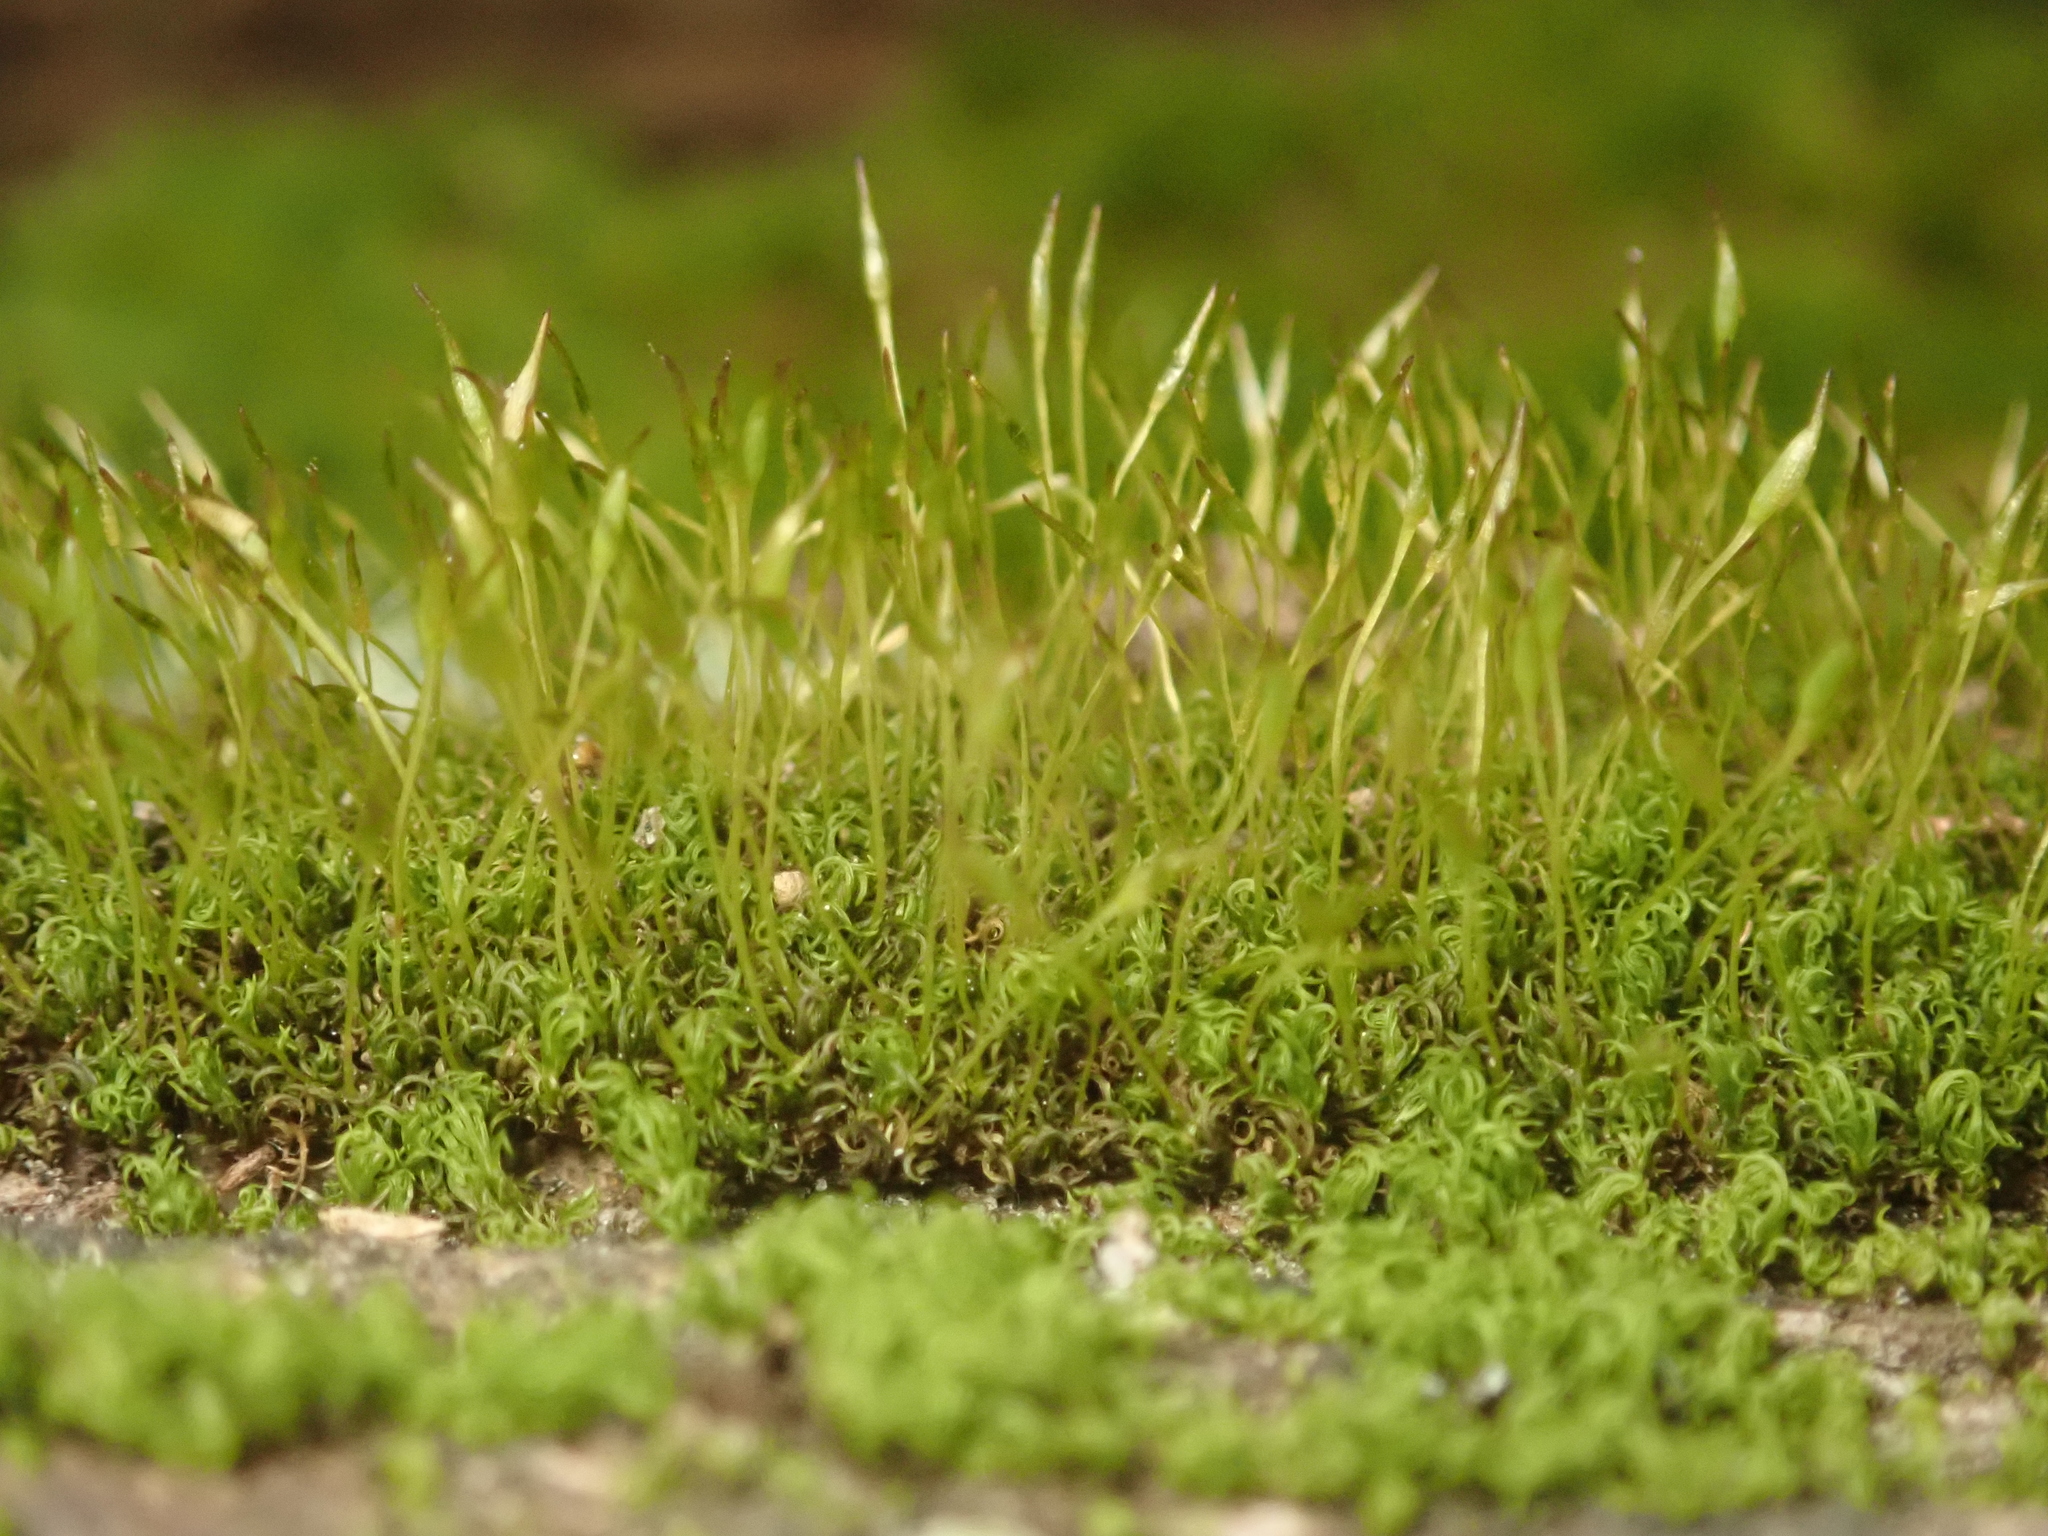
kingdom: Plantae
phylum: Bryophyta
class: Bryopsida
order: Dicranales
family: Rhabdoweisiaceae
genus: Dicranoweisia
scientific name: Dicranoweisia cirrata
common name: Common pincushion
